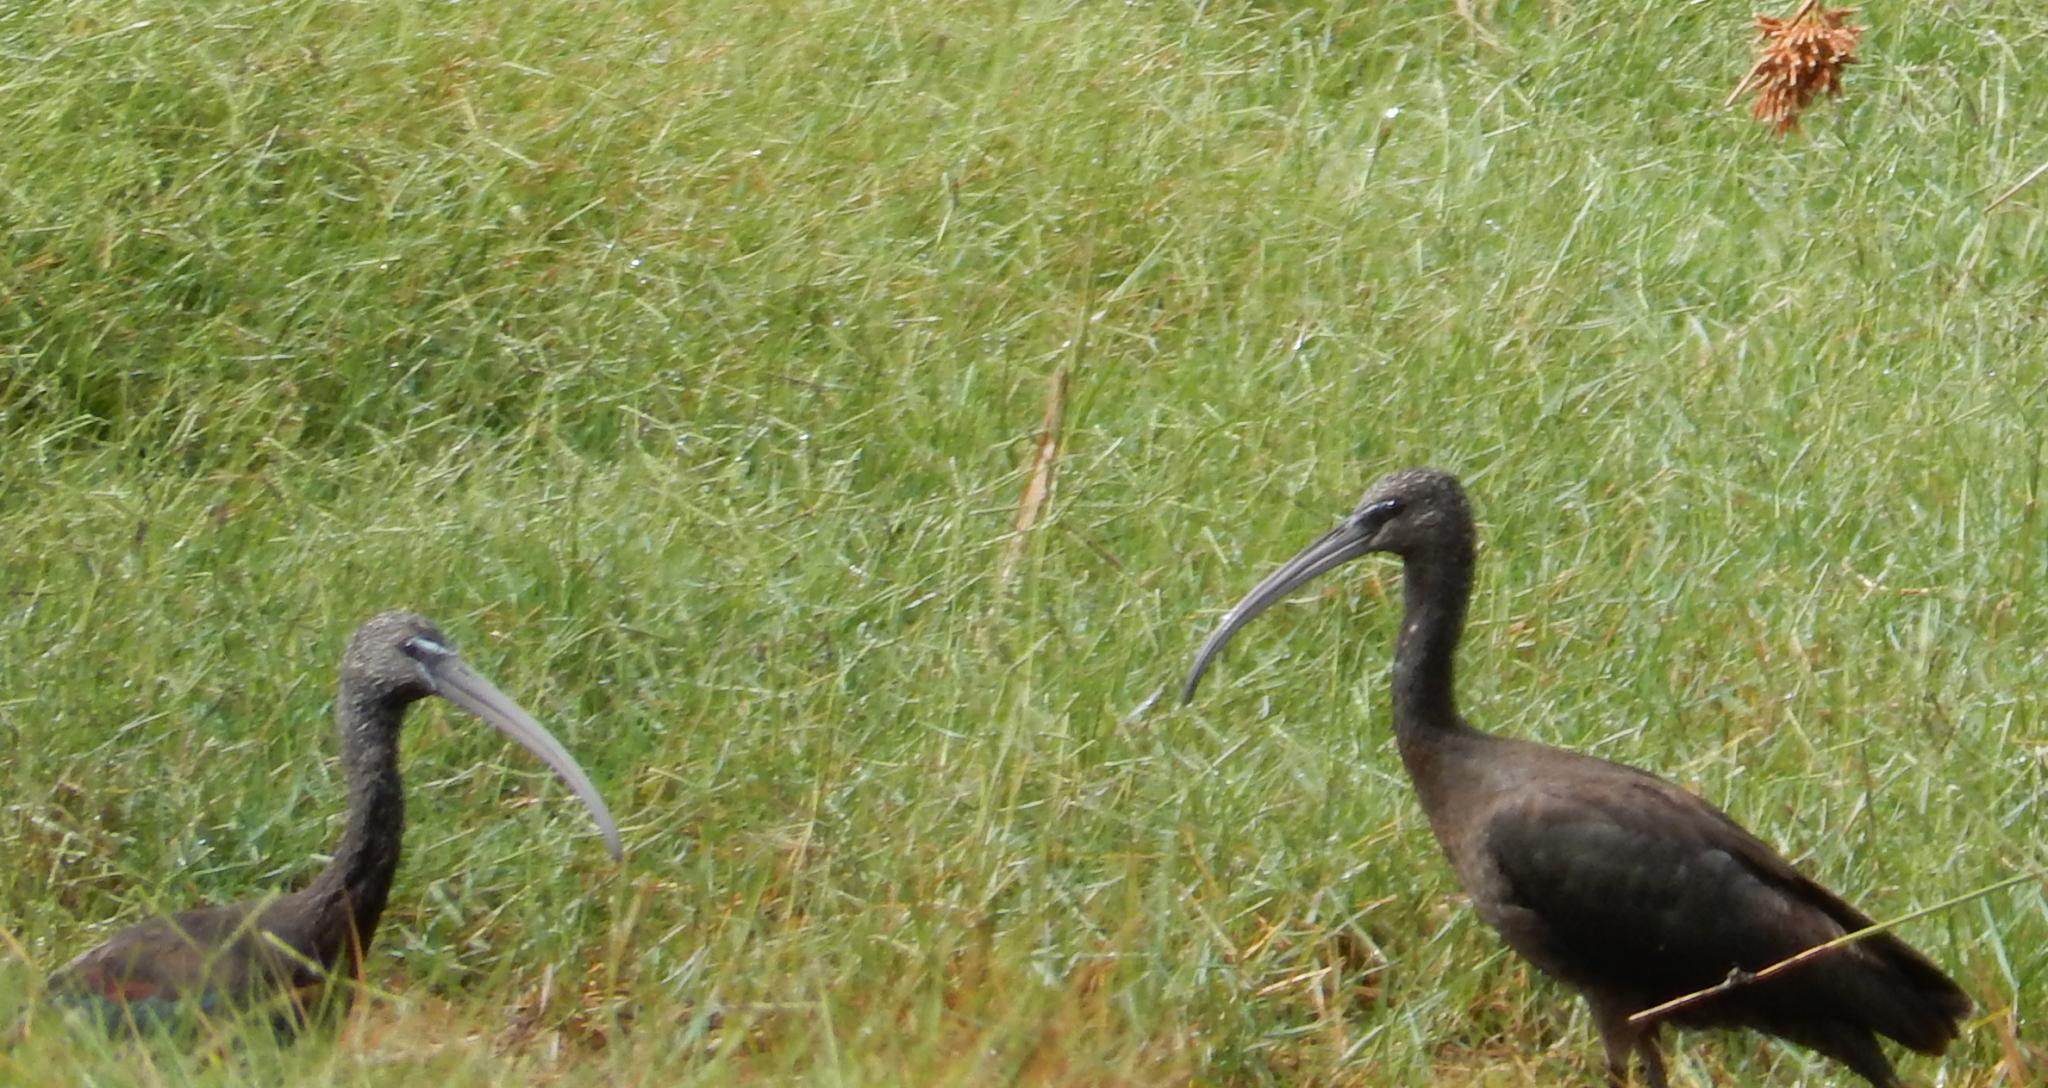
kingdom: Animalia
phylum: Chordata
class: Aves
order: Pelecaniformes
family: Threskiornithidae
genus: Plegadis
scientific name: Plegadis falcinellus
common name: Glossy ibis
